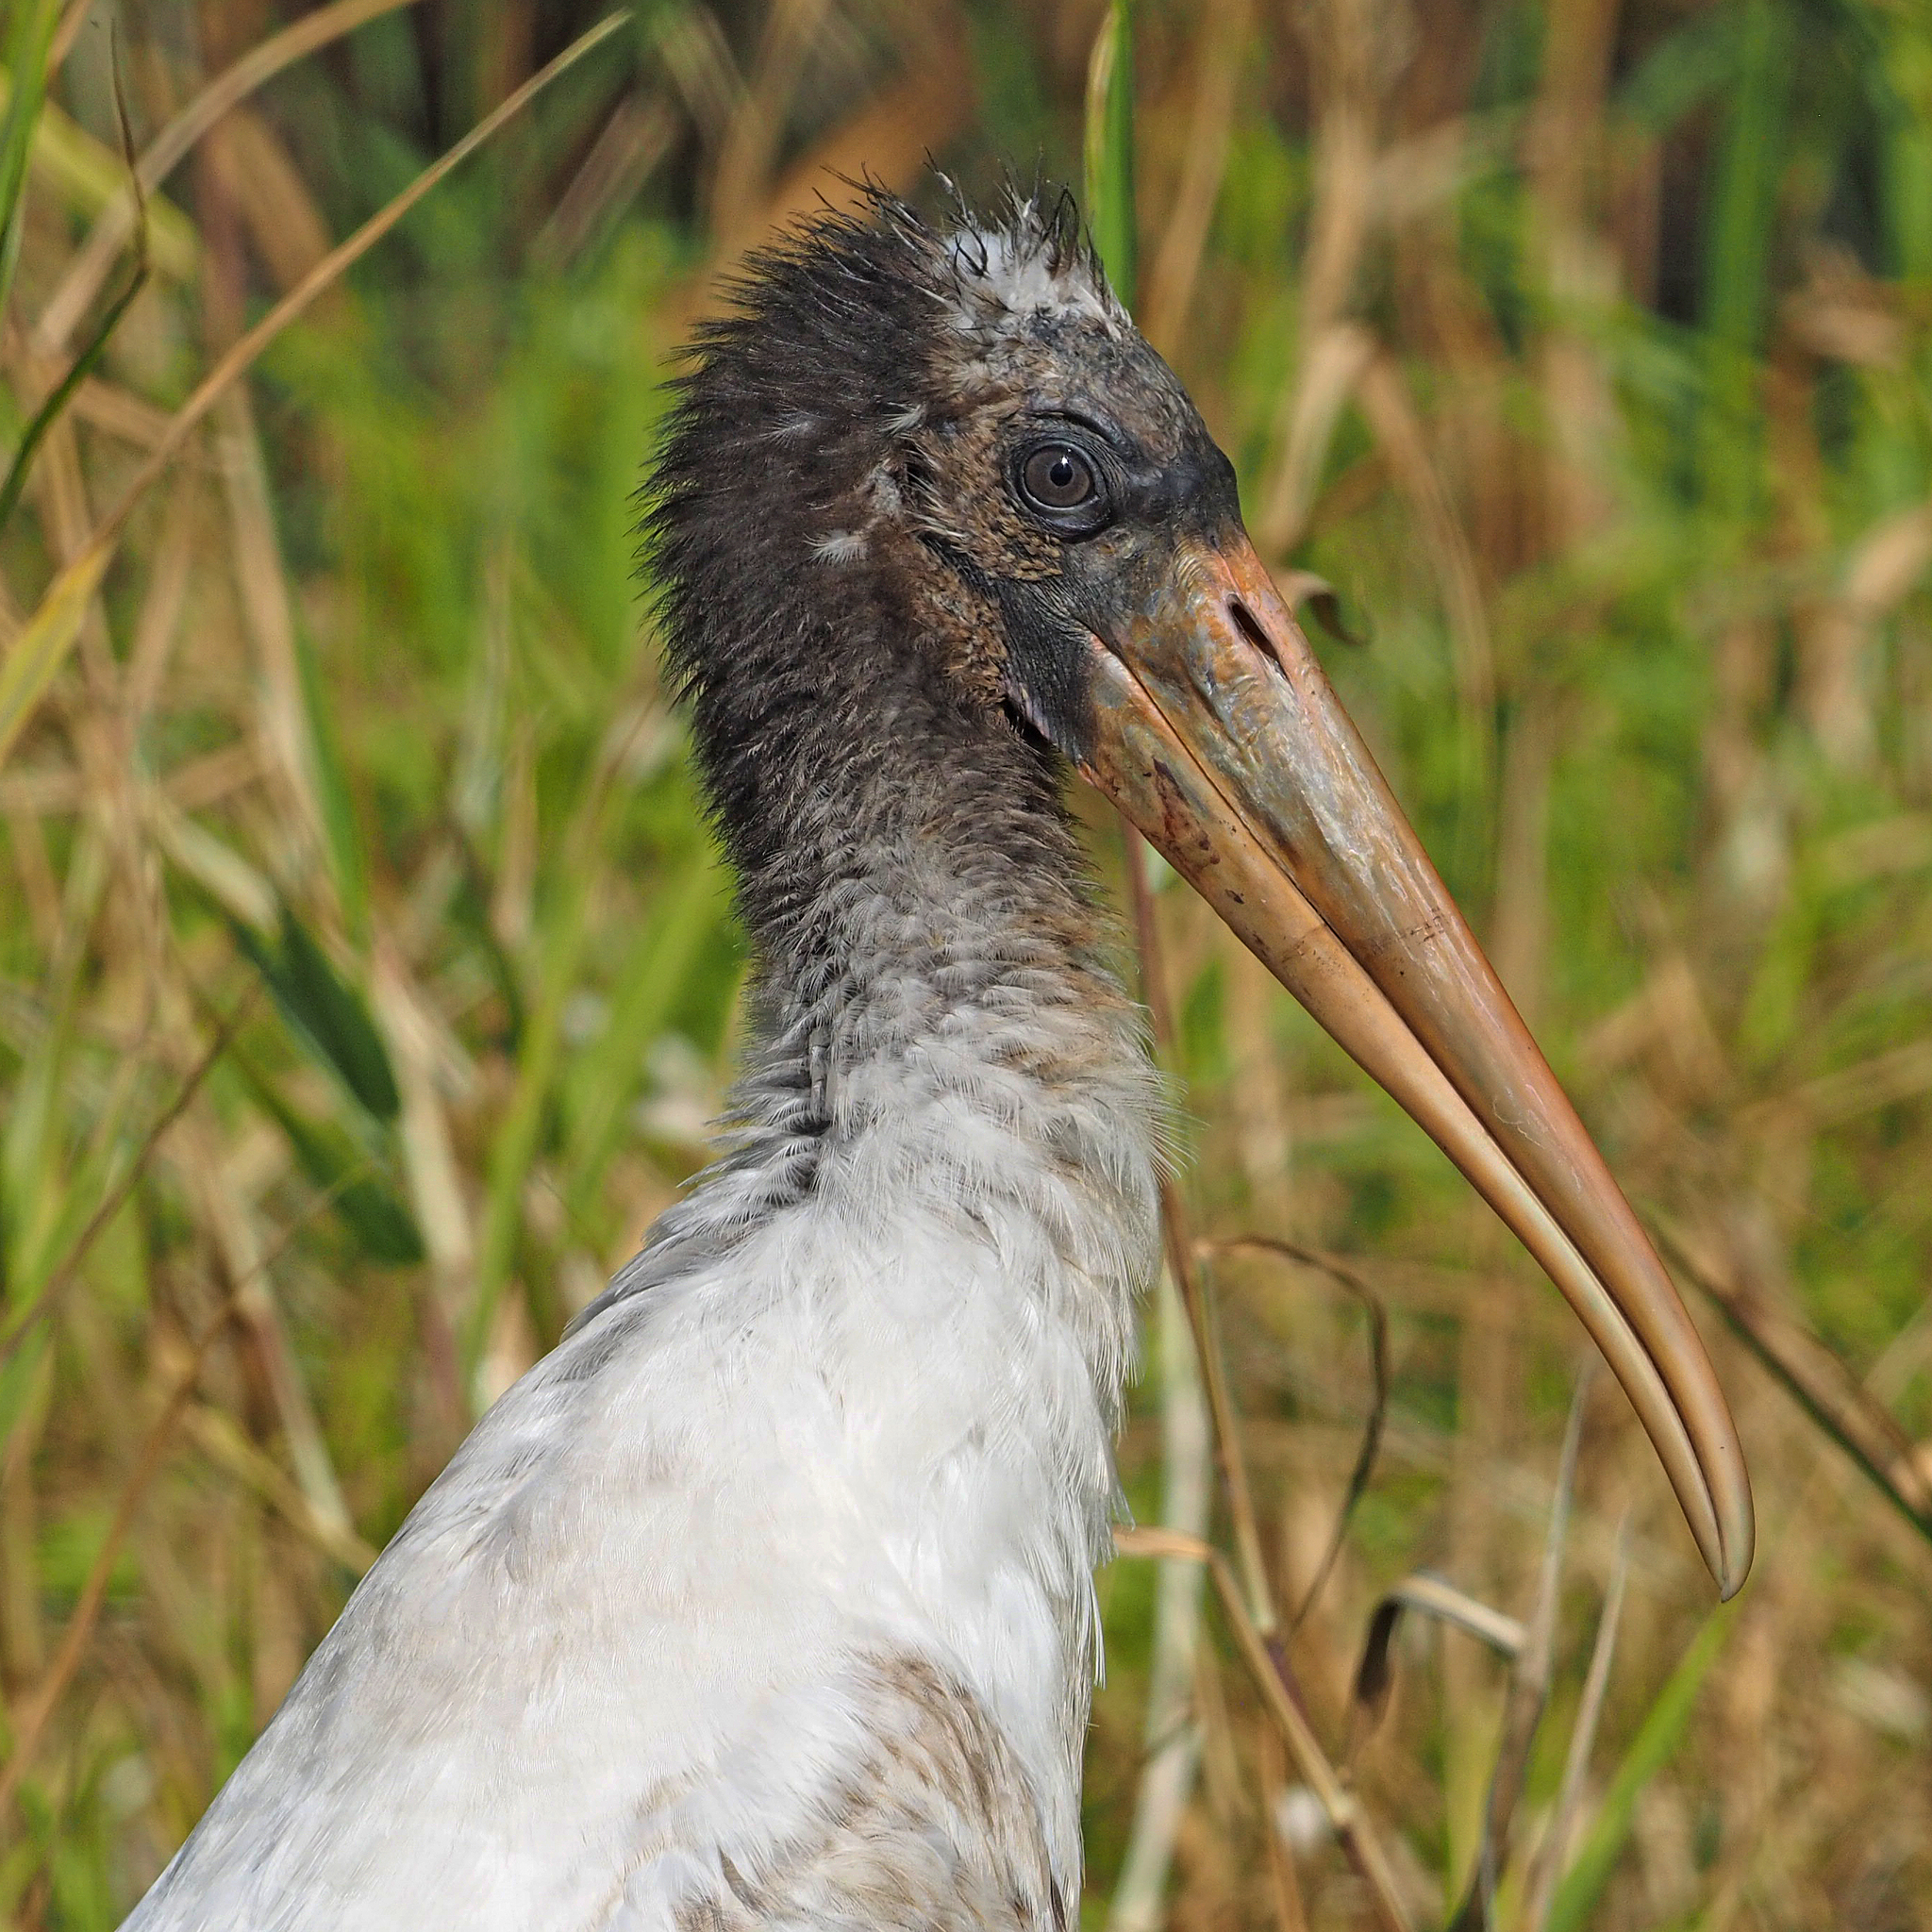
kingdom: Animalia
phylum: Chordata
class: Aves
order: Ciconiiformes
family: Ciconiidae
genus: Mycteria
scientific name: Mycteria americana
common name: Wood stork
